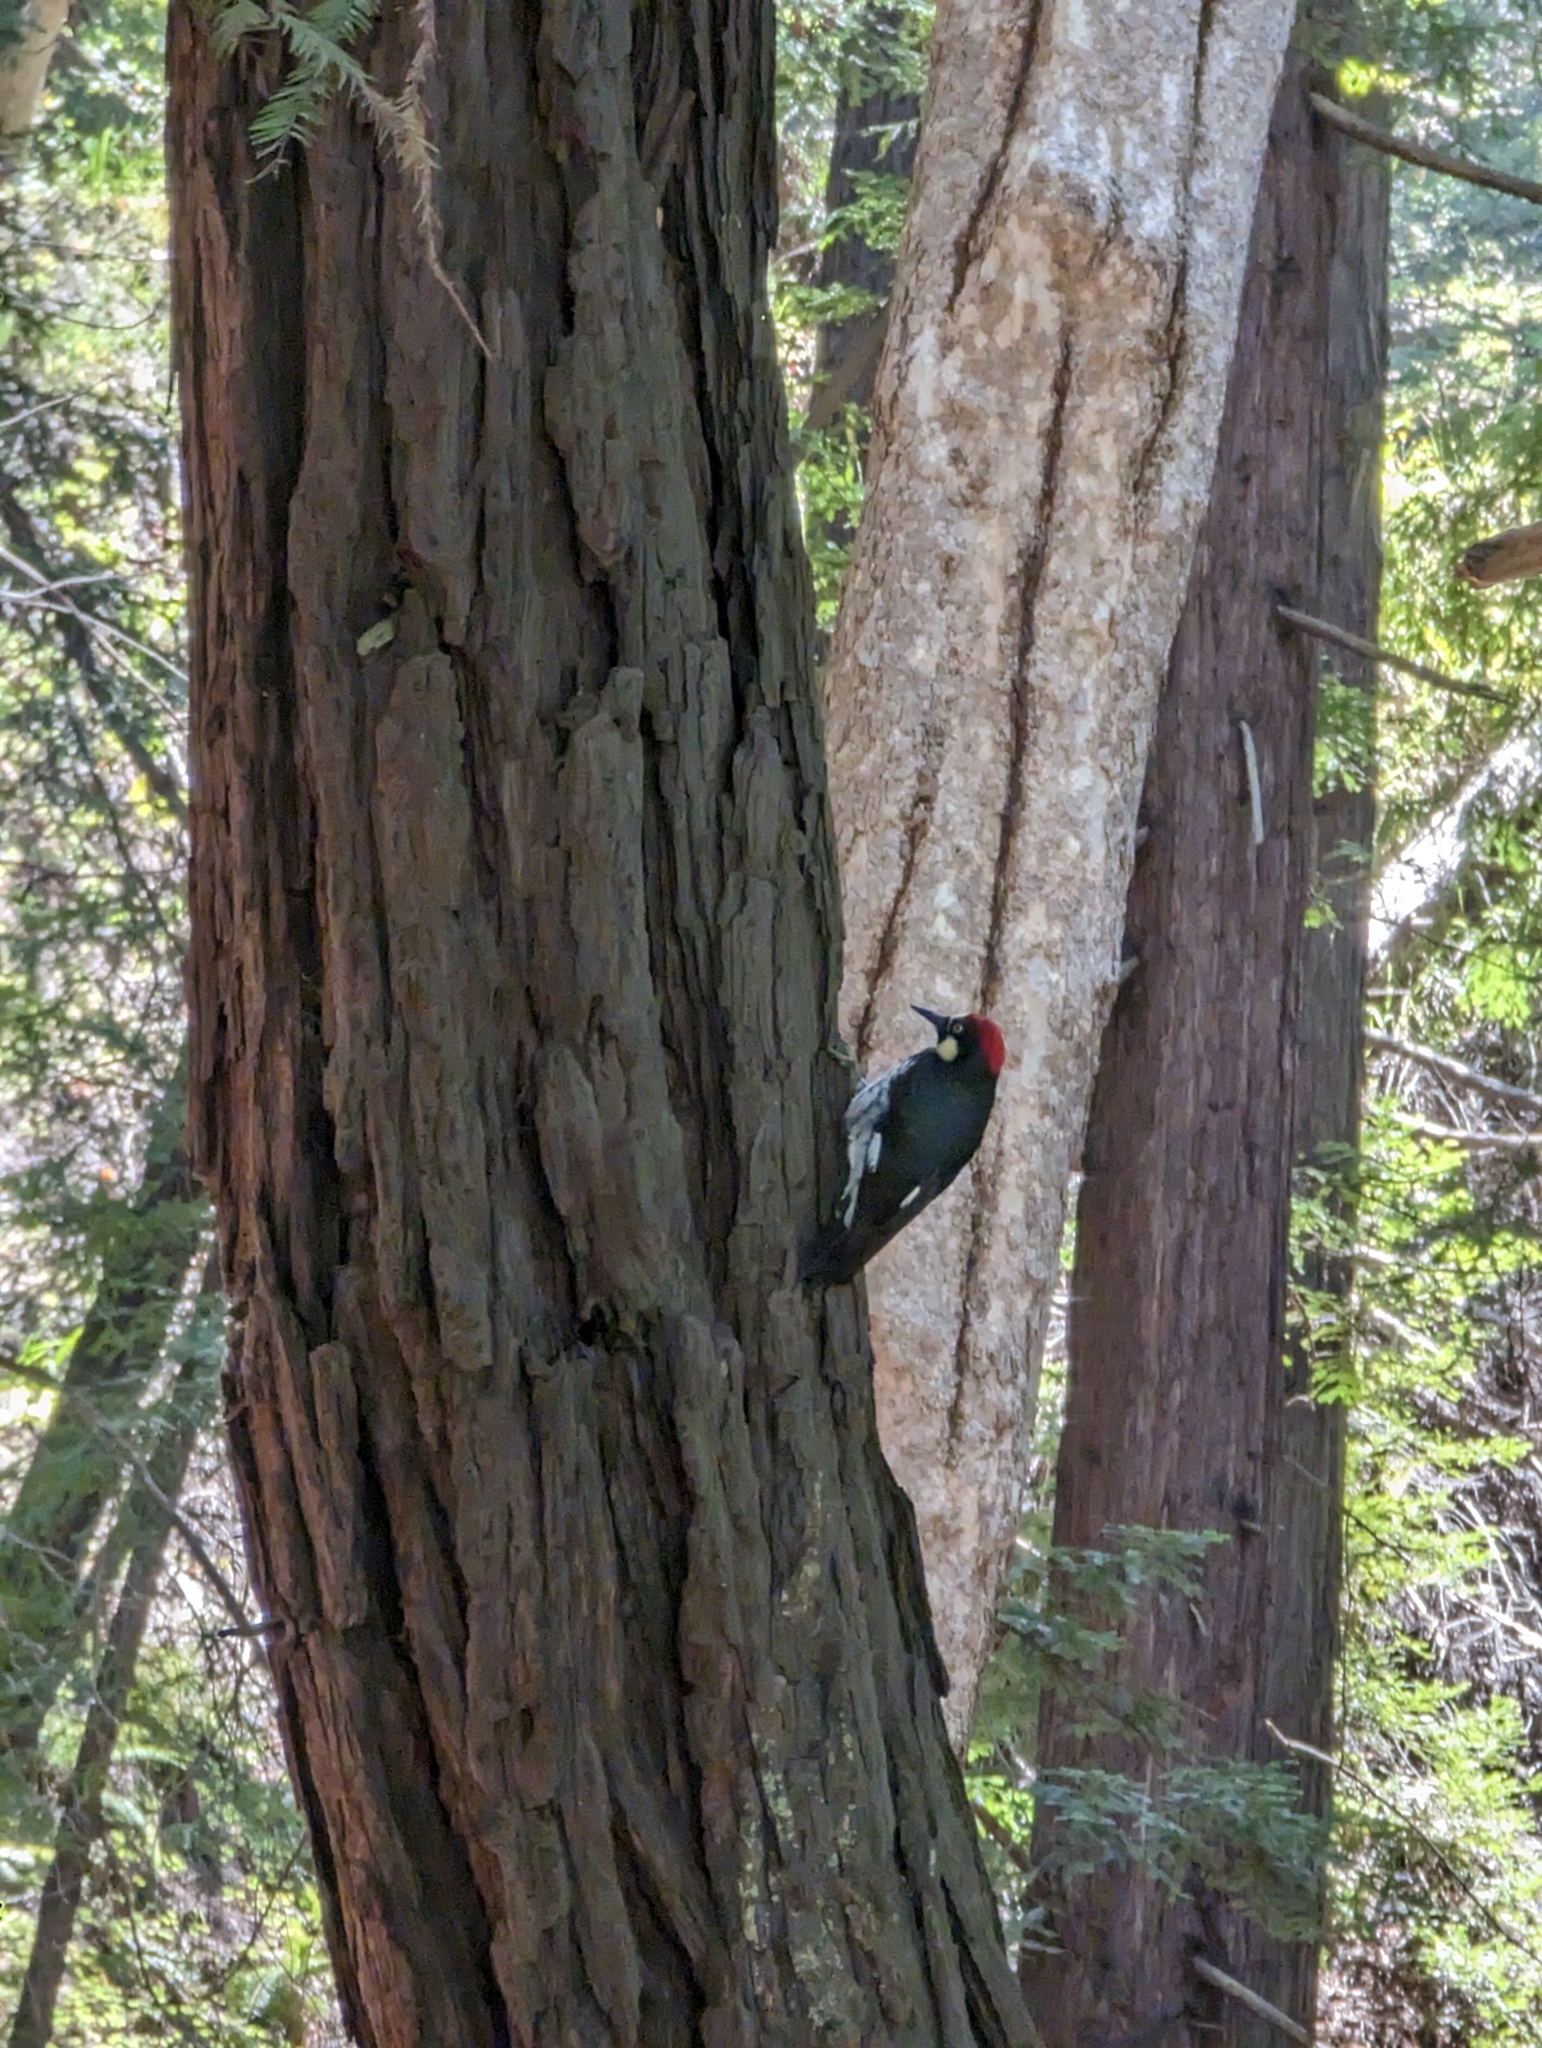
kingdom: Animalia
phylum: Chordata
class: Aves
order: Piciformes
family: Picidae
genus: Melanerpes
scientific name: Melanerpes formicivorus
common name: Acorn woodpecker
